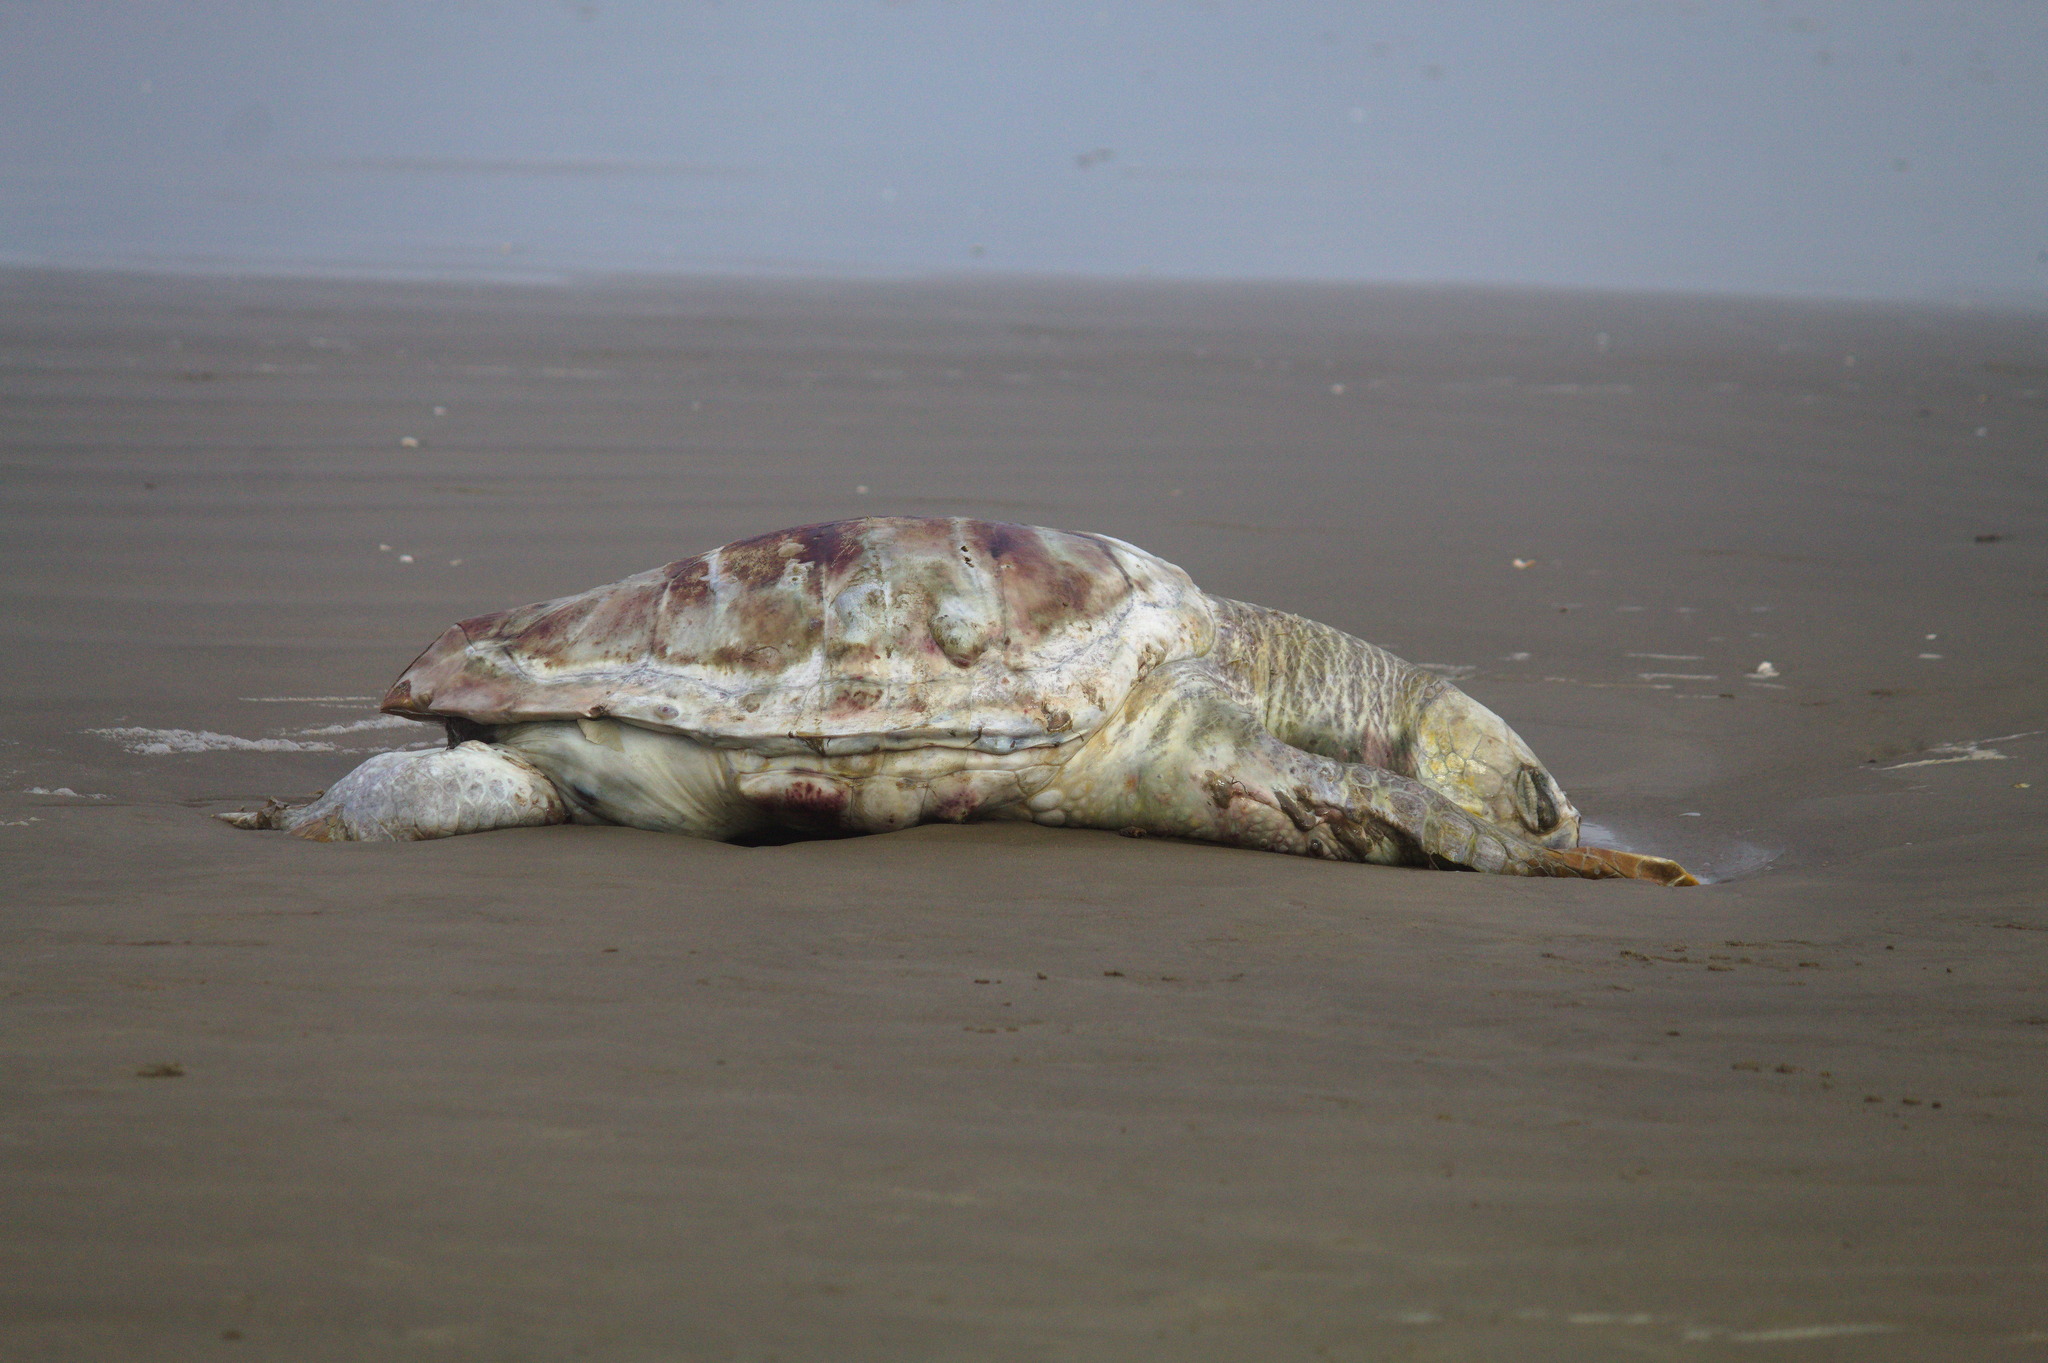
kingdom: Animalia
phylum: Chordata
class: Testudines
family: Cheloniidae
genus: Caretta
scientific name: Caretta caretta
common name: Loggerhead sea turtle
